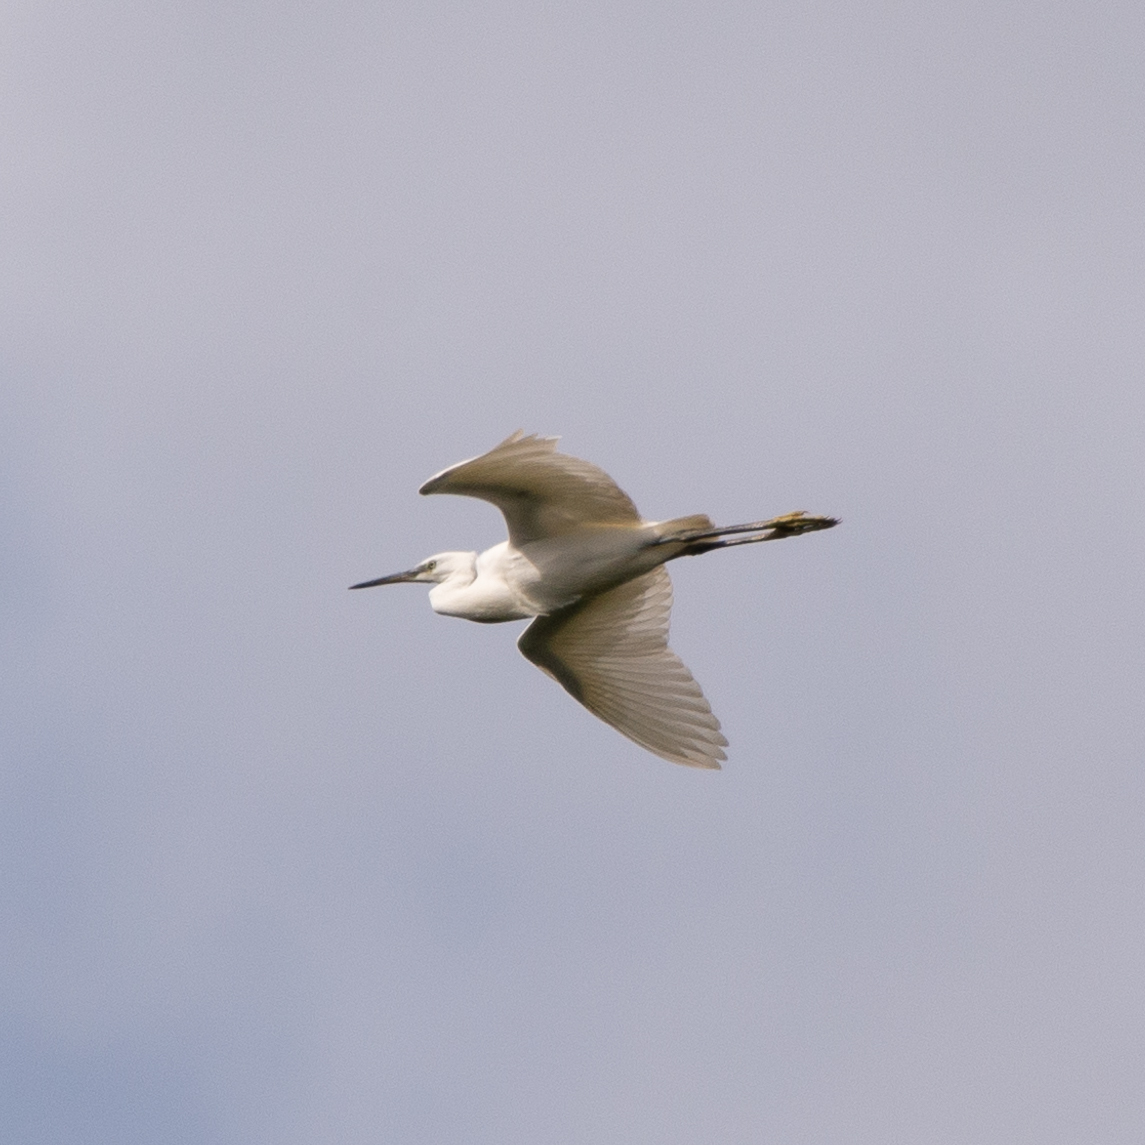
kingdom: Animalia
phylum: Chordata
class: Aves
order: Pelecaniformes
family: Ardeidae
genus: Egretta
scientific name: Egretta garzetta
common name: Little egret
